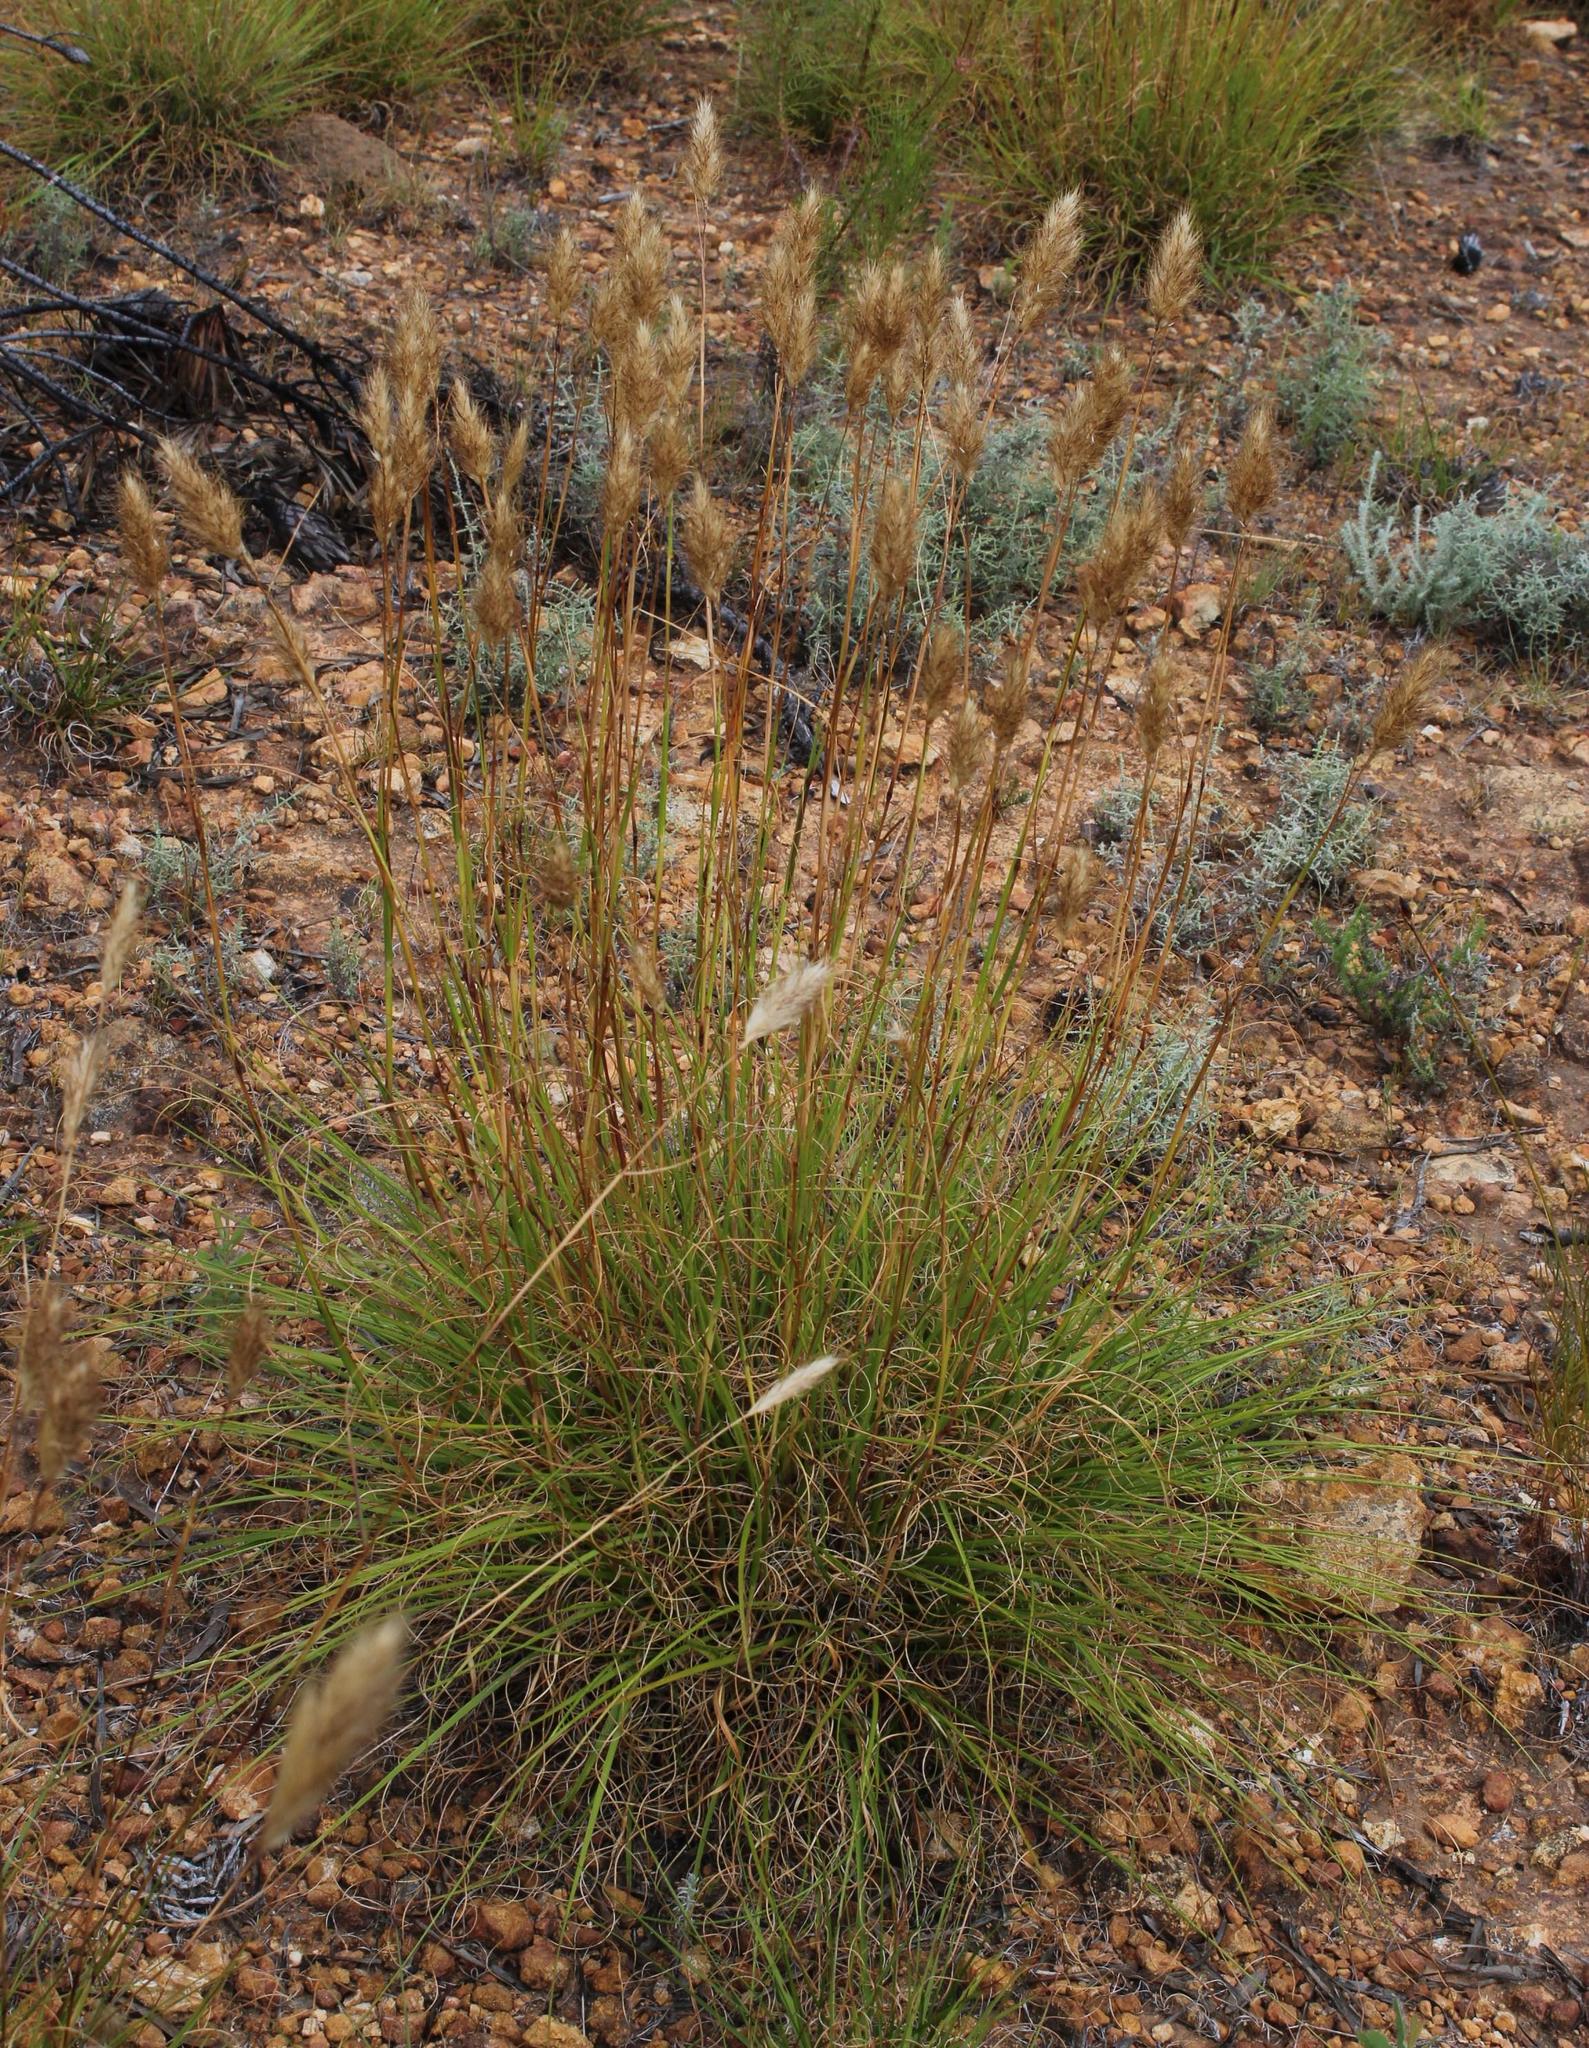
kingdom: Plantae
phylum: Tracheophyta
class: Liliopsida
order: Poales
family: Poaceae
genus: Pentameris
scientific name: Pentameris curvifolia
